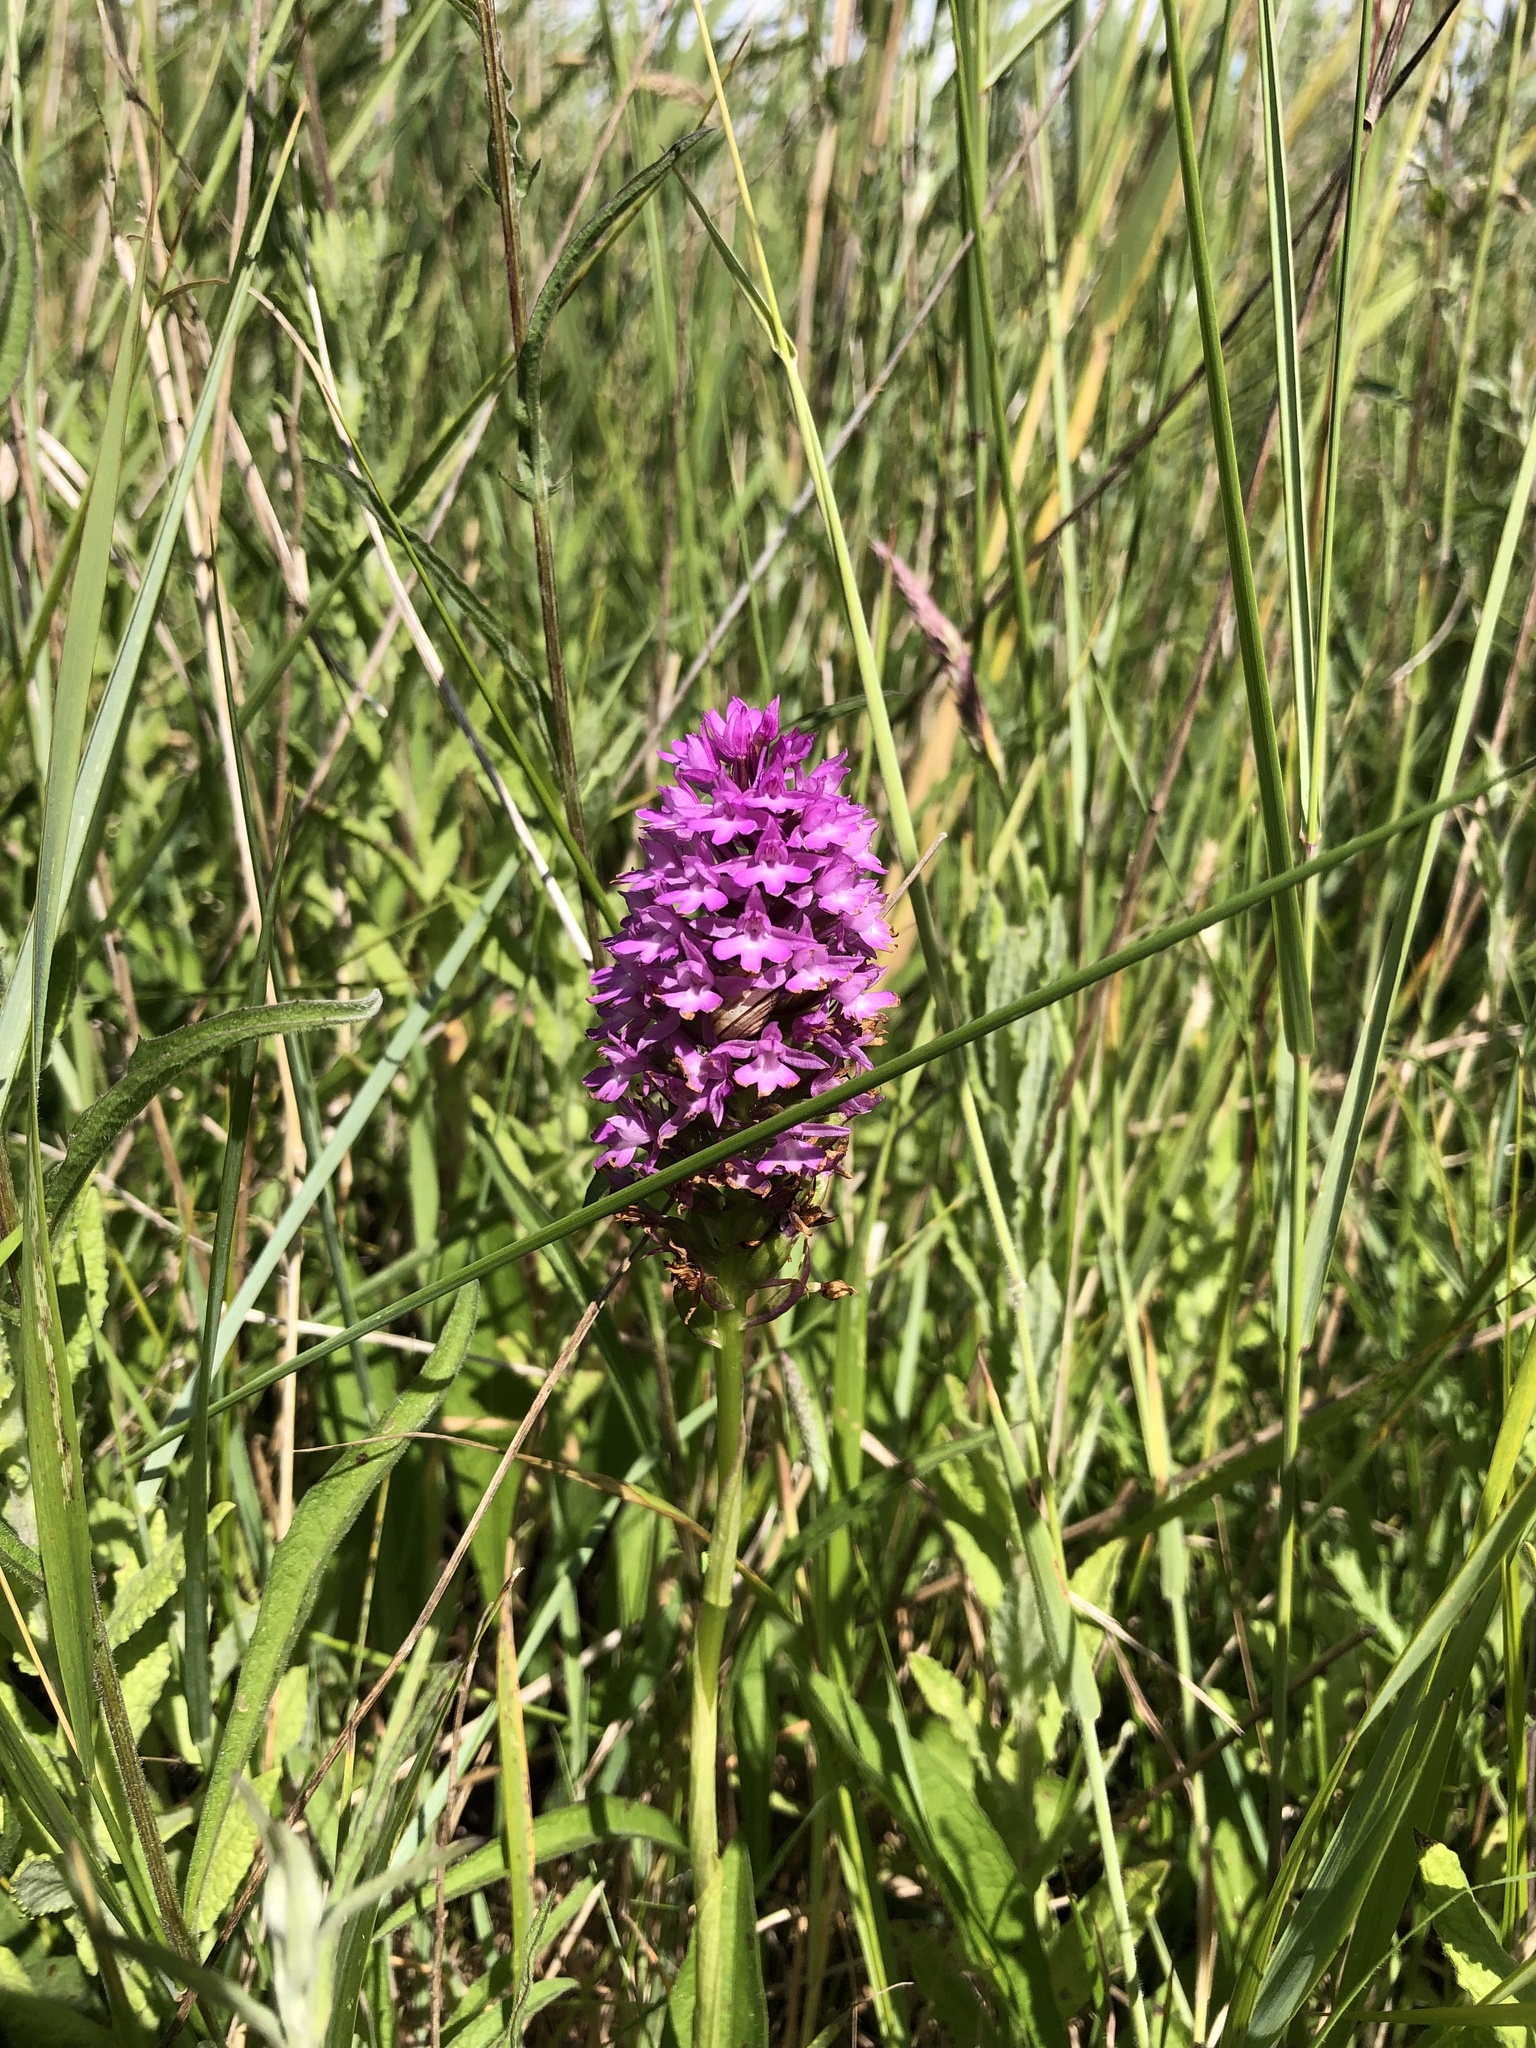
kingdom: Plantae
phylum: Tracheophyta
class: Liliopsida
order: Asparagales
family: Orchidaceae
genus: Anacamptis
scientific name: Anacamptis pyramidalis
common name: Pyramidal orchid
